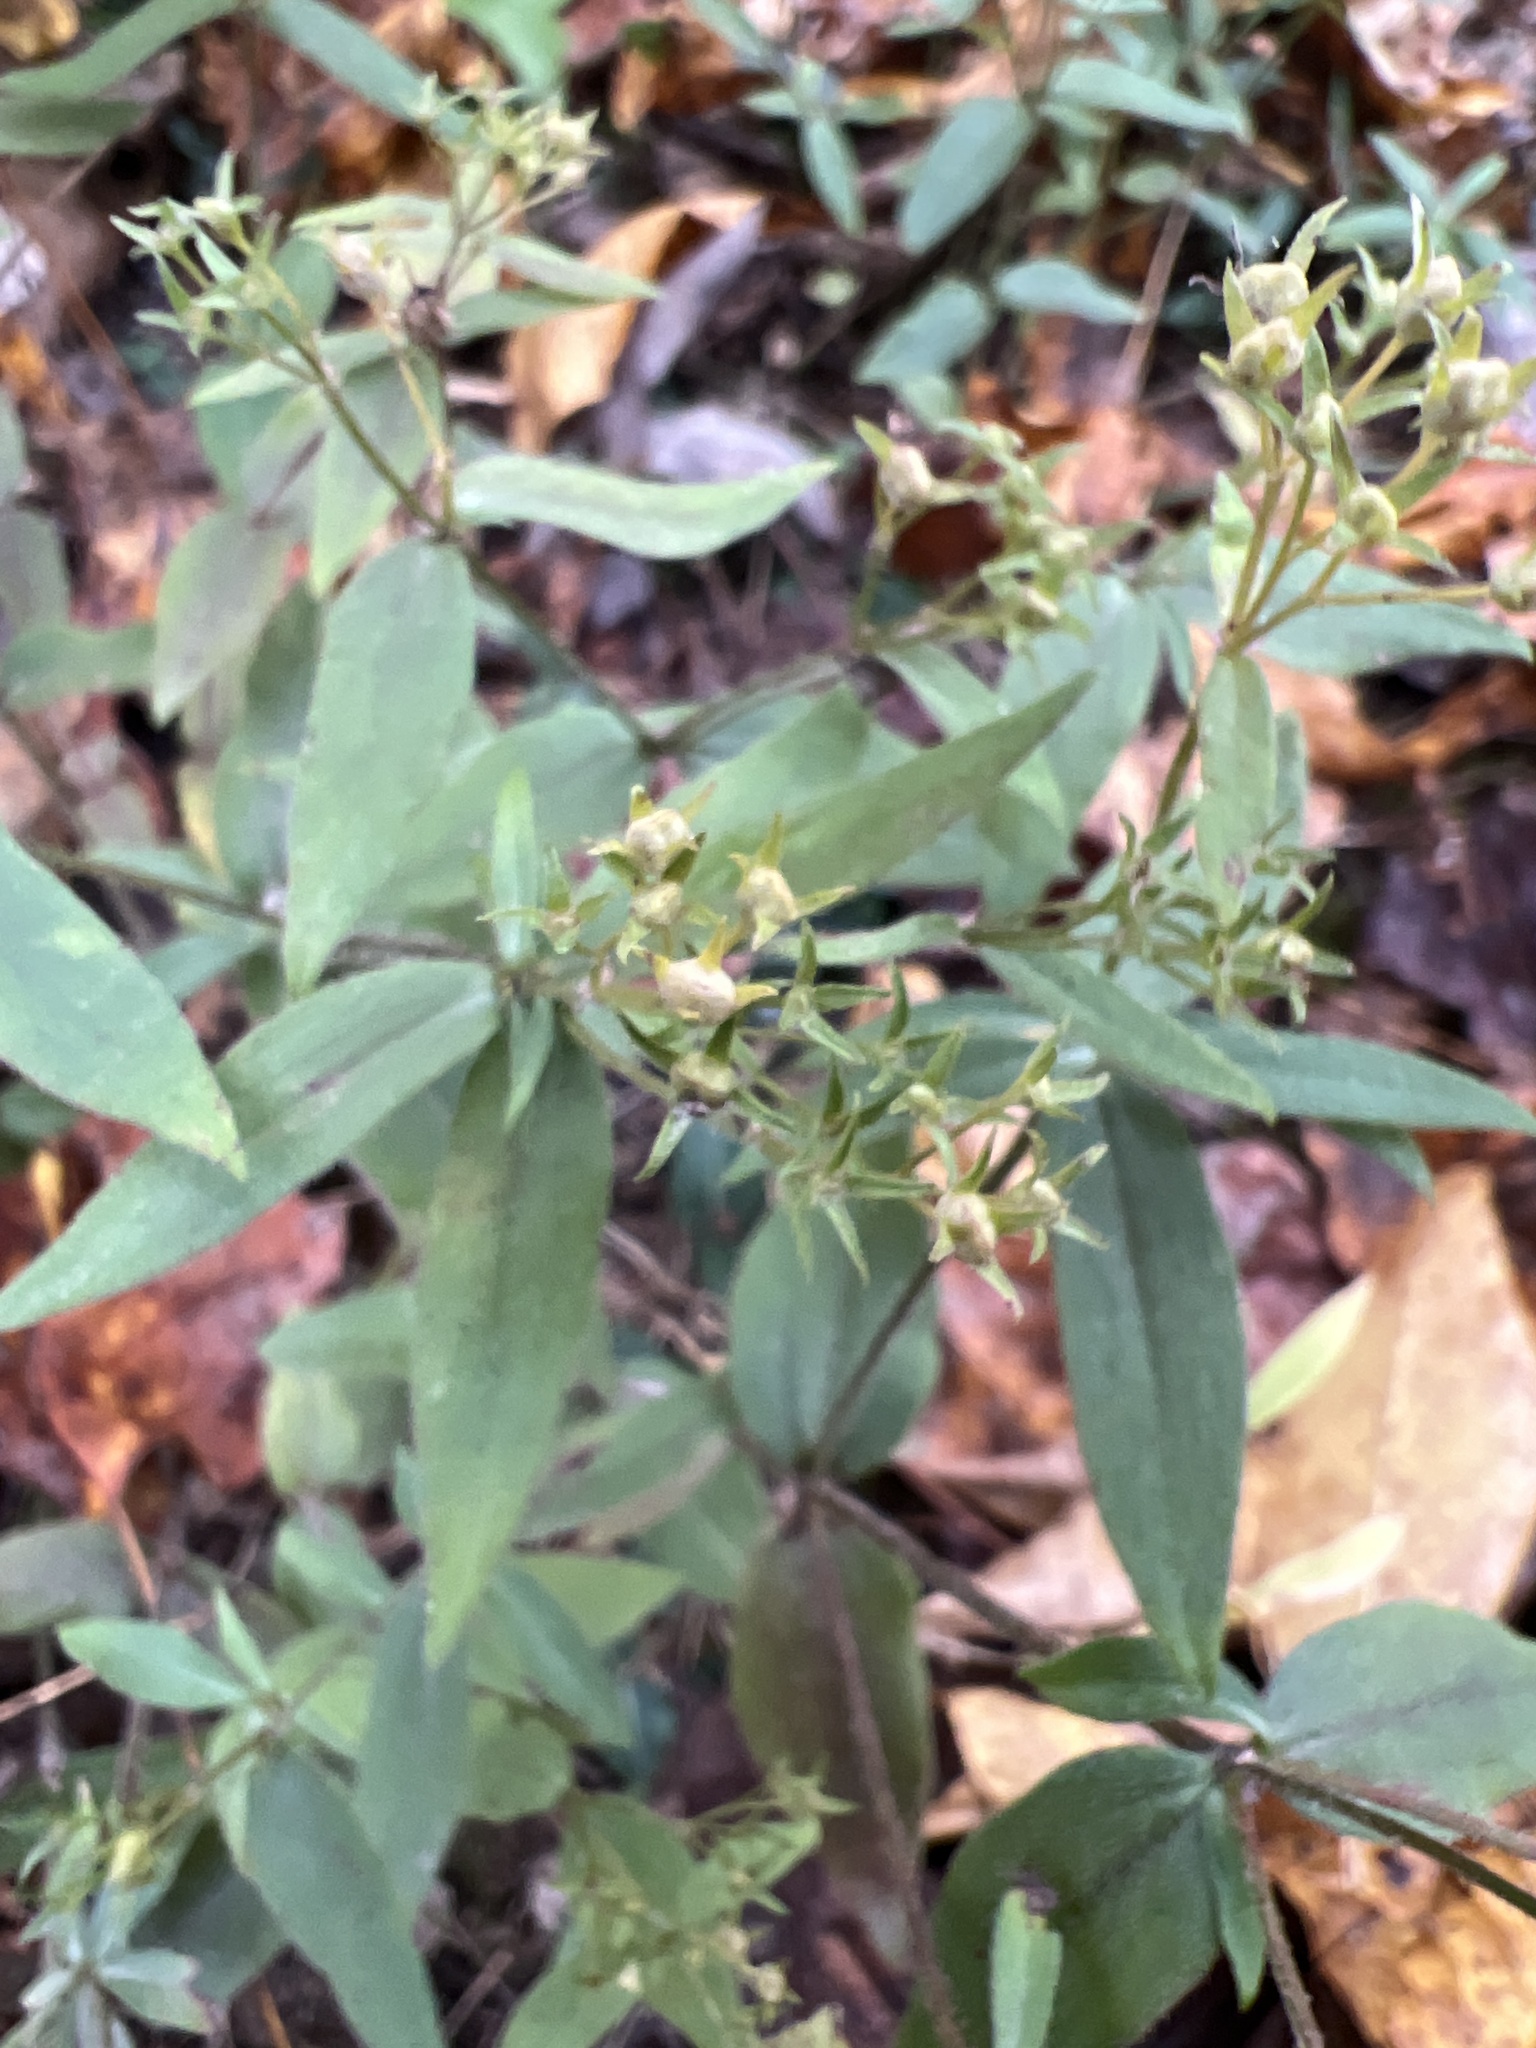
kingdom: Plantae
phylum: Tracheophyta
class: Magnoliopsida
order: Gentianales
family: Rubiaceae
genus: Houstonia
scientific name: Houstonia purpurea
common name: Summer bluet
